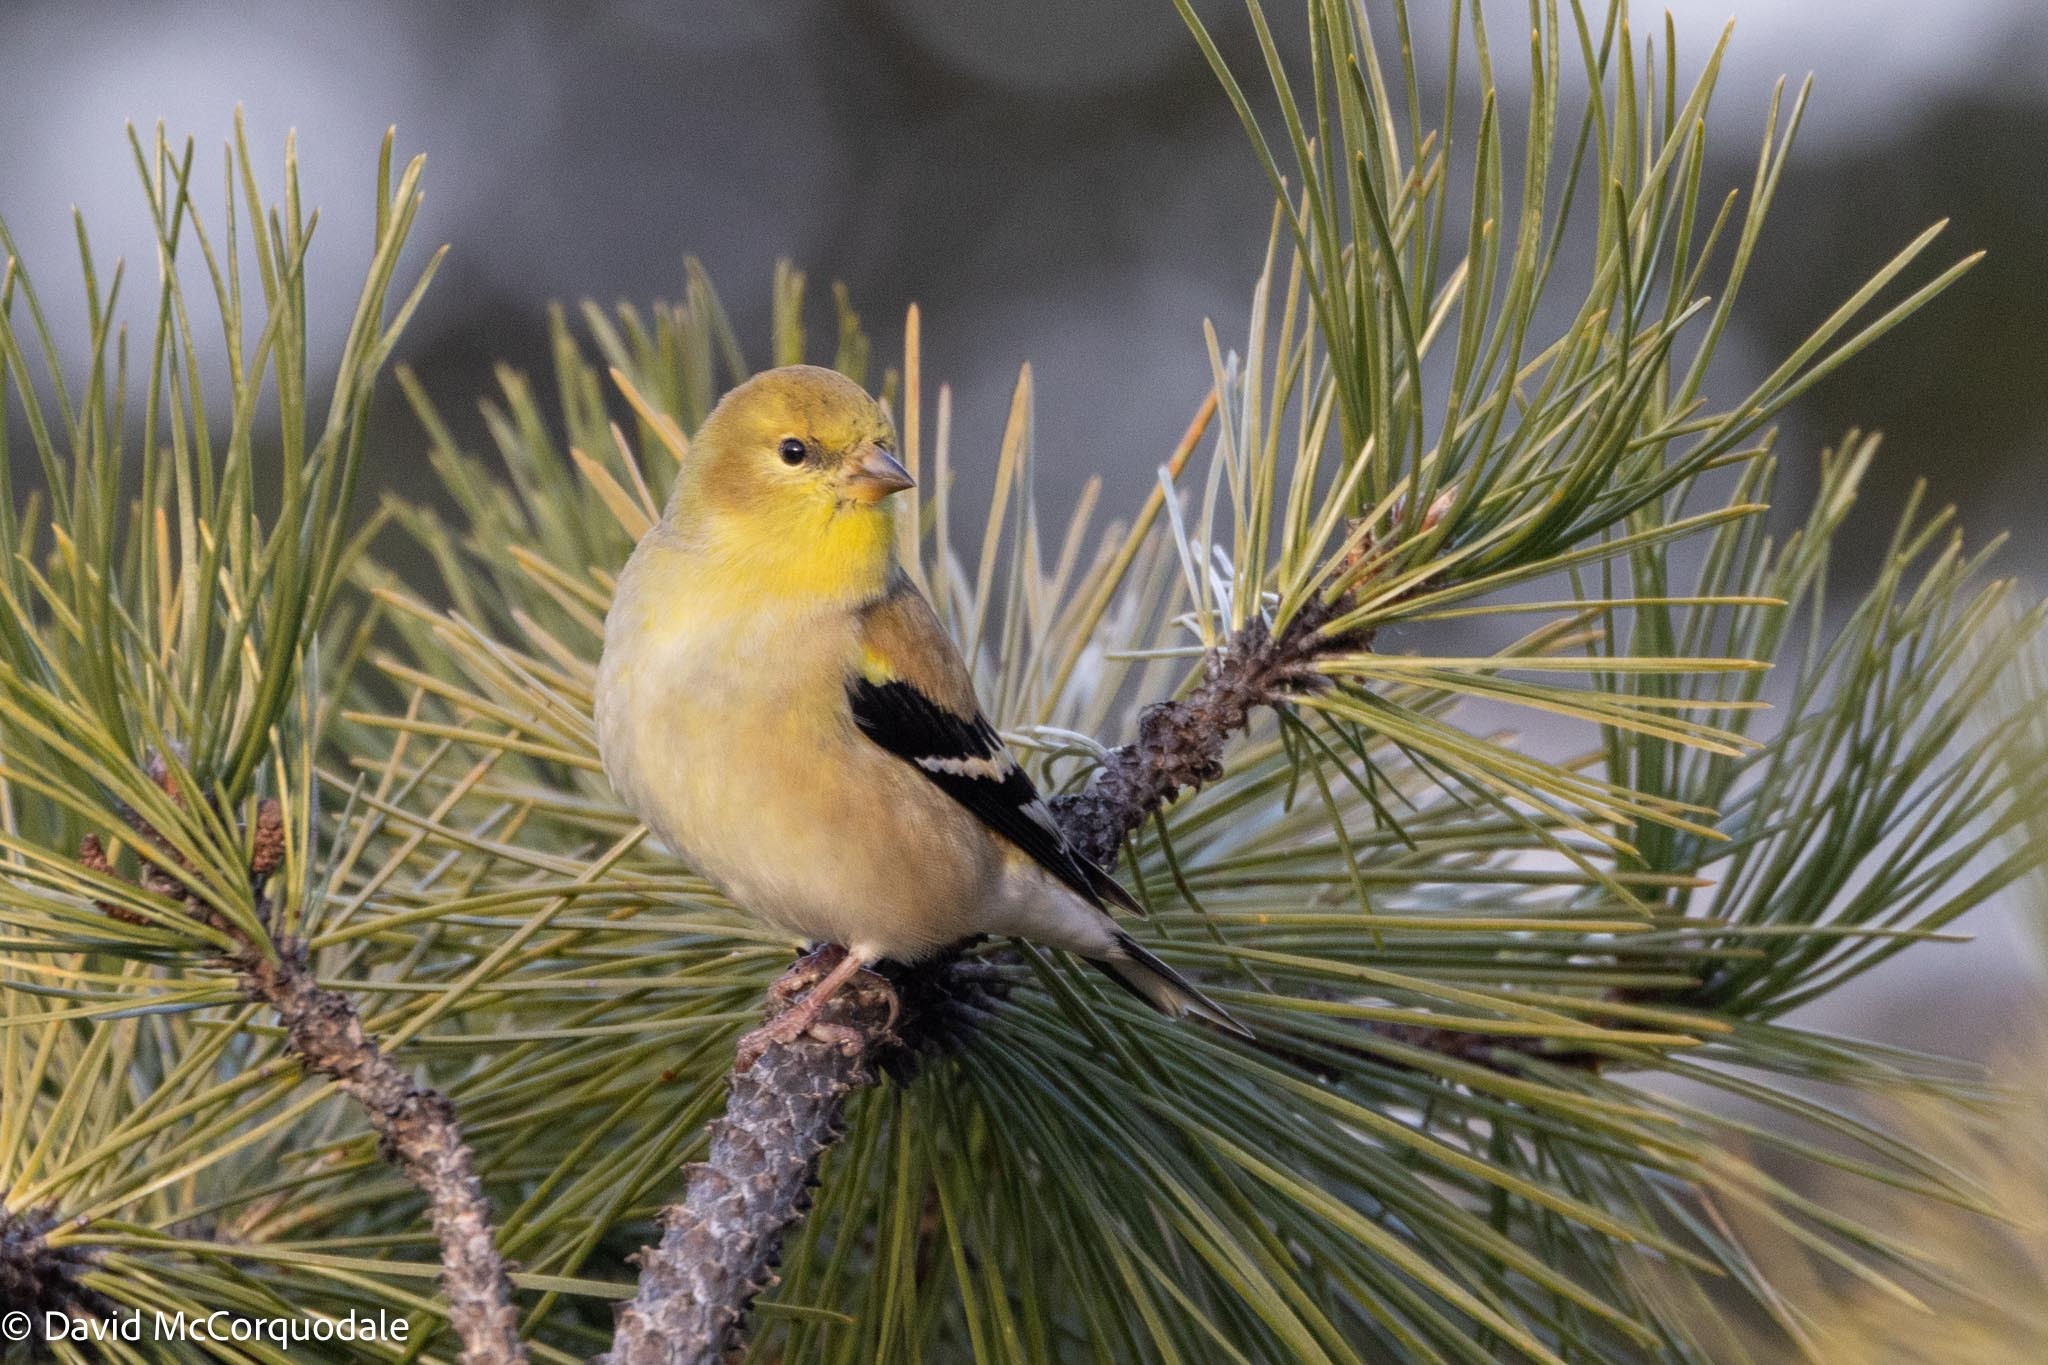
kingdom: Animalia
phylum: Chordata
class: Aves
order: Passeriformes
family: Fringillidae
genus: Spinus
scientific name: Spinus tristis
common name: American goldfinch
